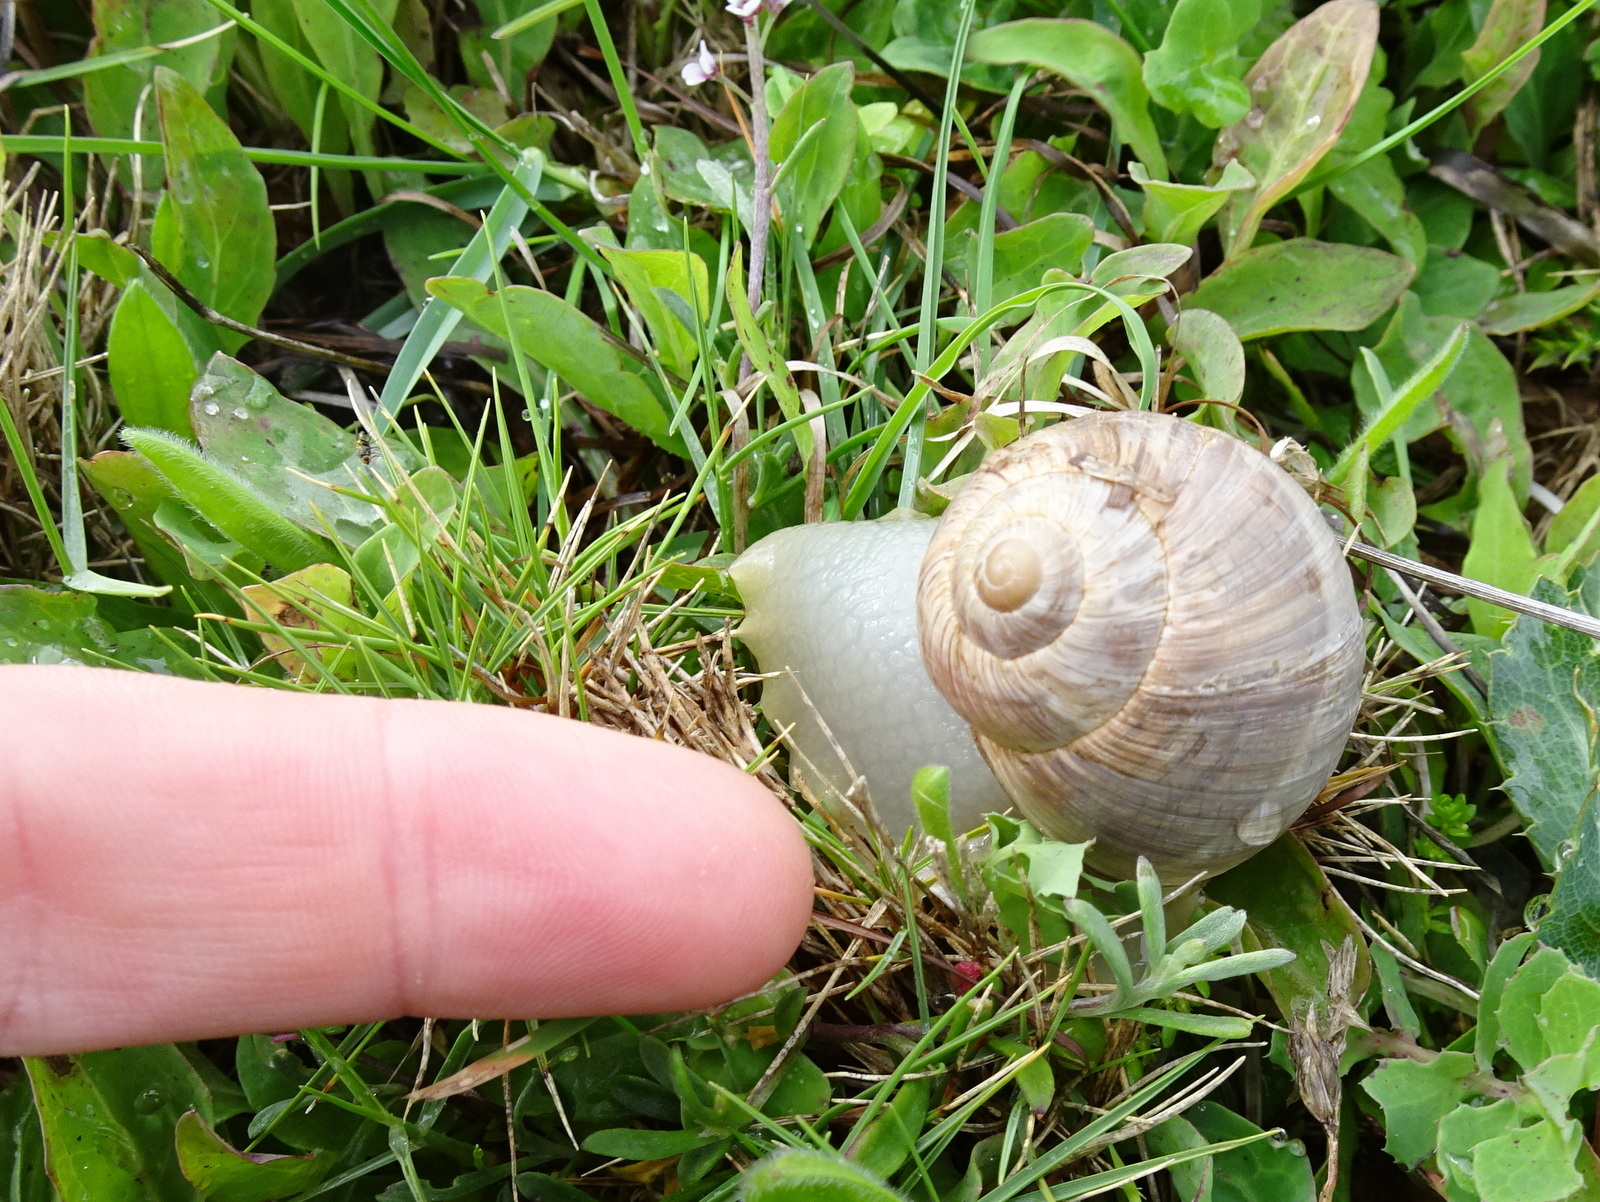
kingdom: Animalia
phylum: Mollusca
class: Gastropoda
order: Stylommatophora
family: Helicidae
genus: Helix
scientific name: Helix pomatia
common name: Roman snail
